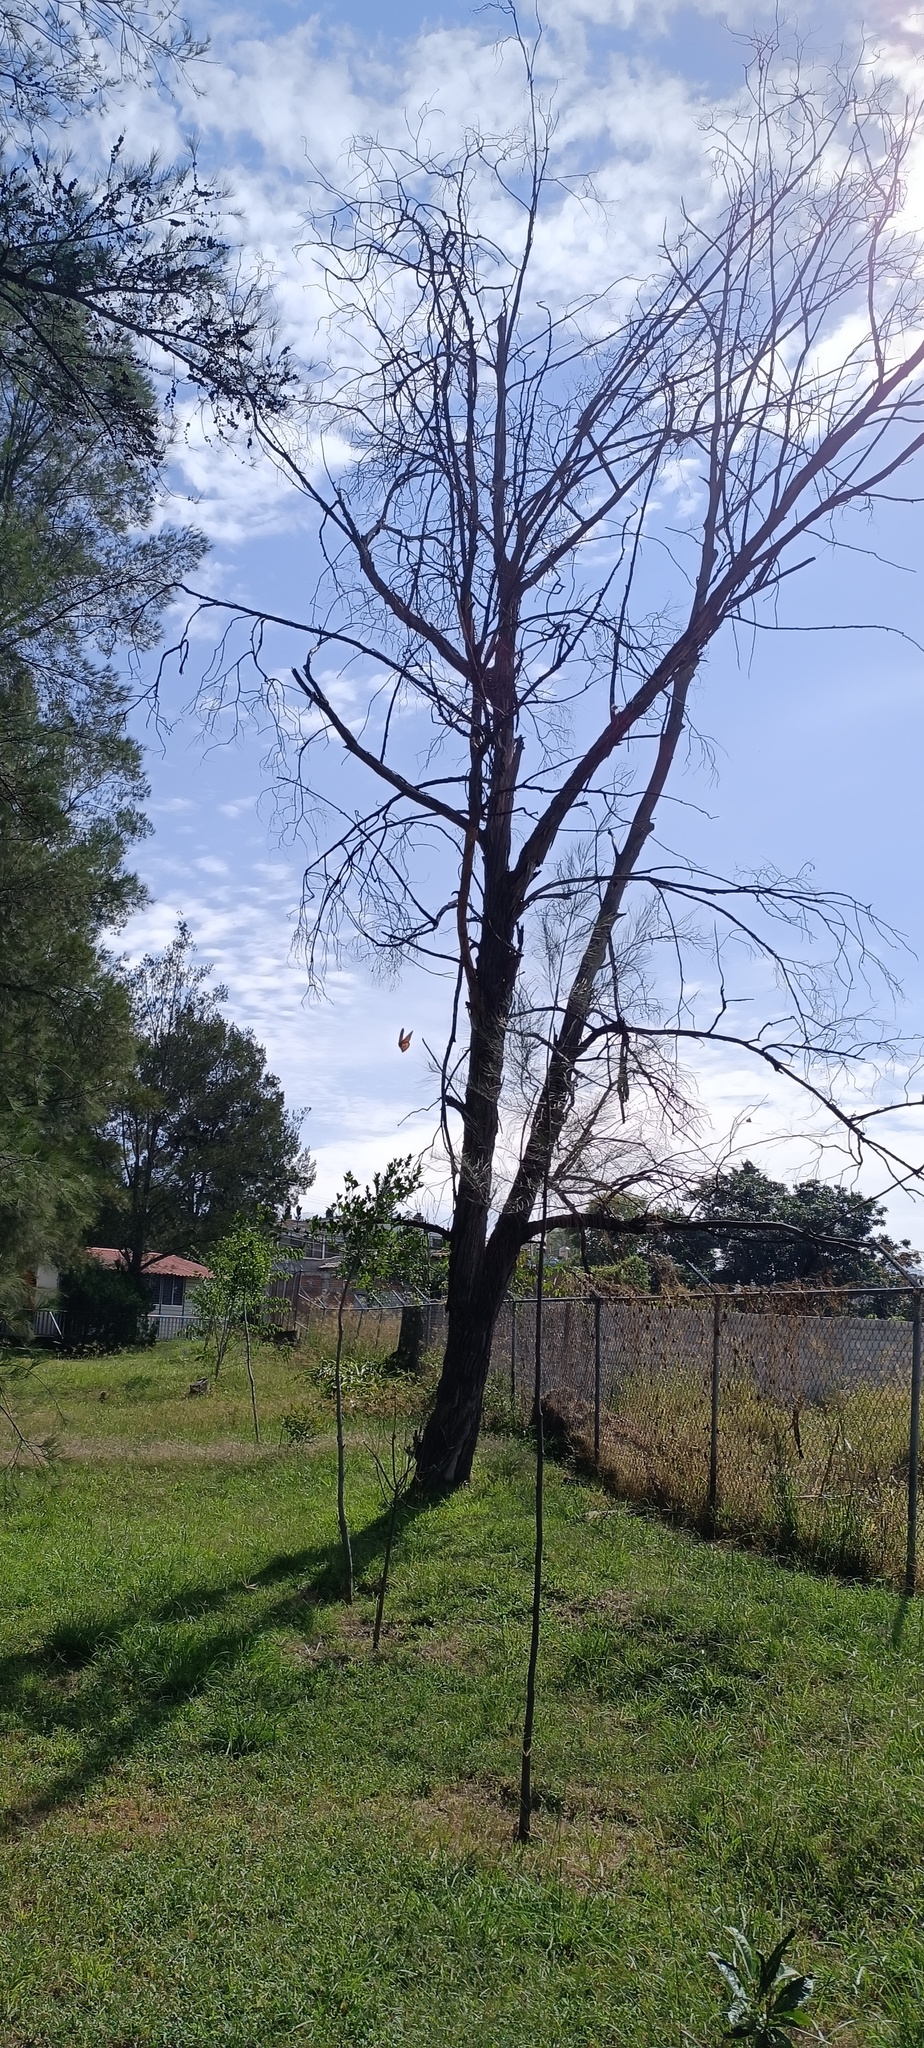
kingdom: Animalia
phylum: Arthropoda
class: Insecta
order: Lepidoptera
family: Nymphalidae
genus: Danaus
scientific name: Danaus plexippus
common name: Monarch
